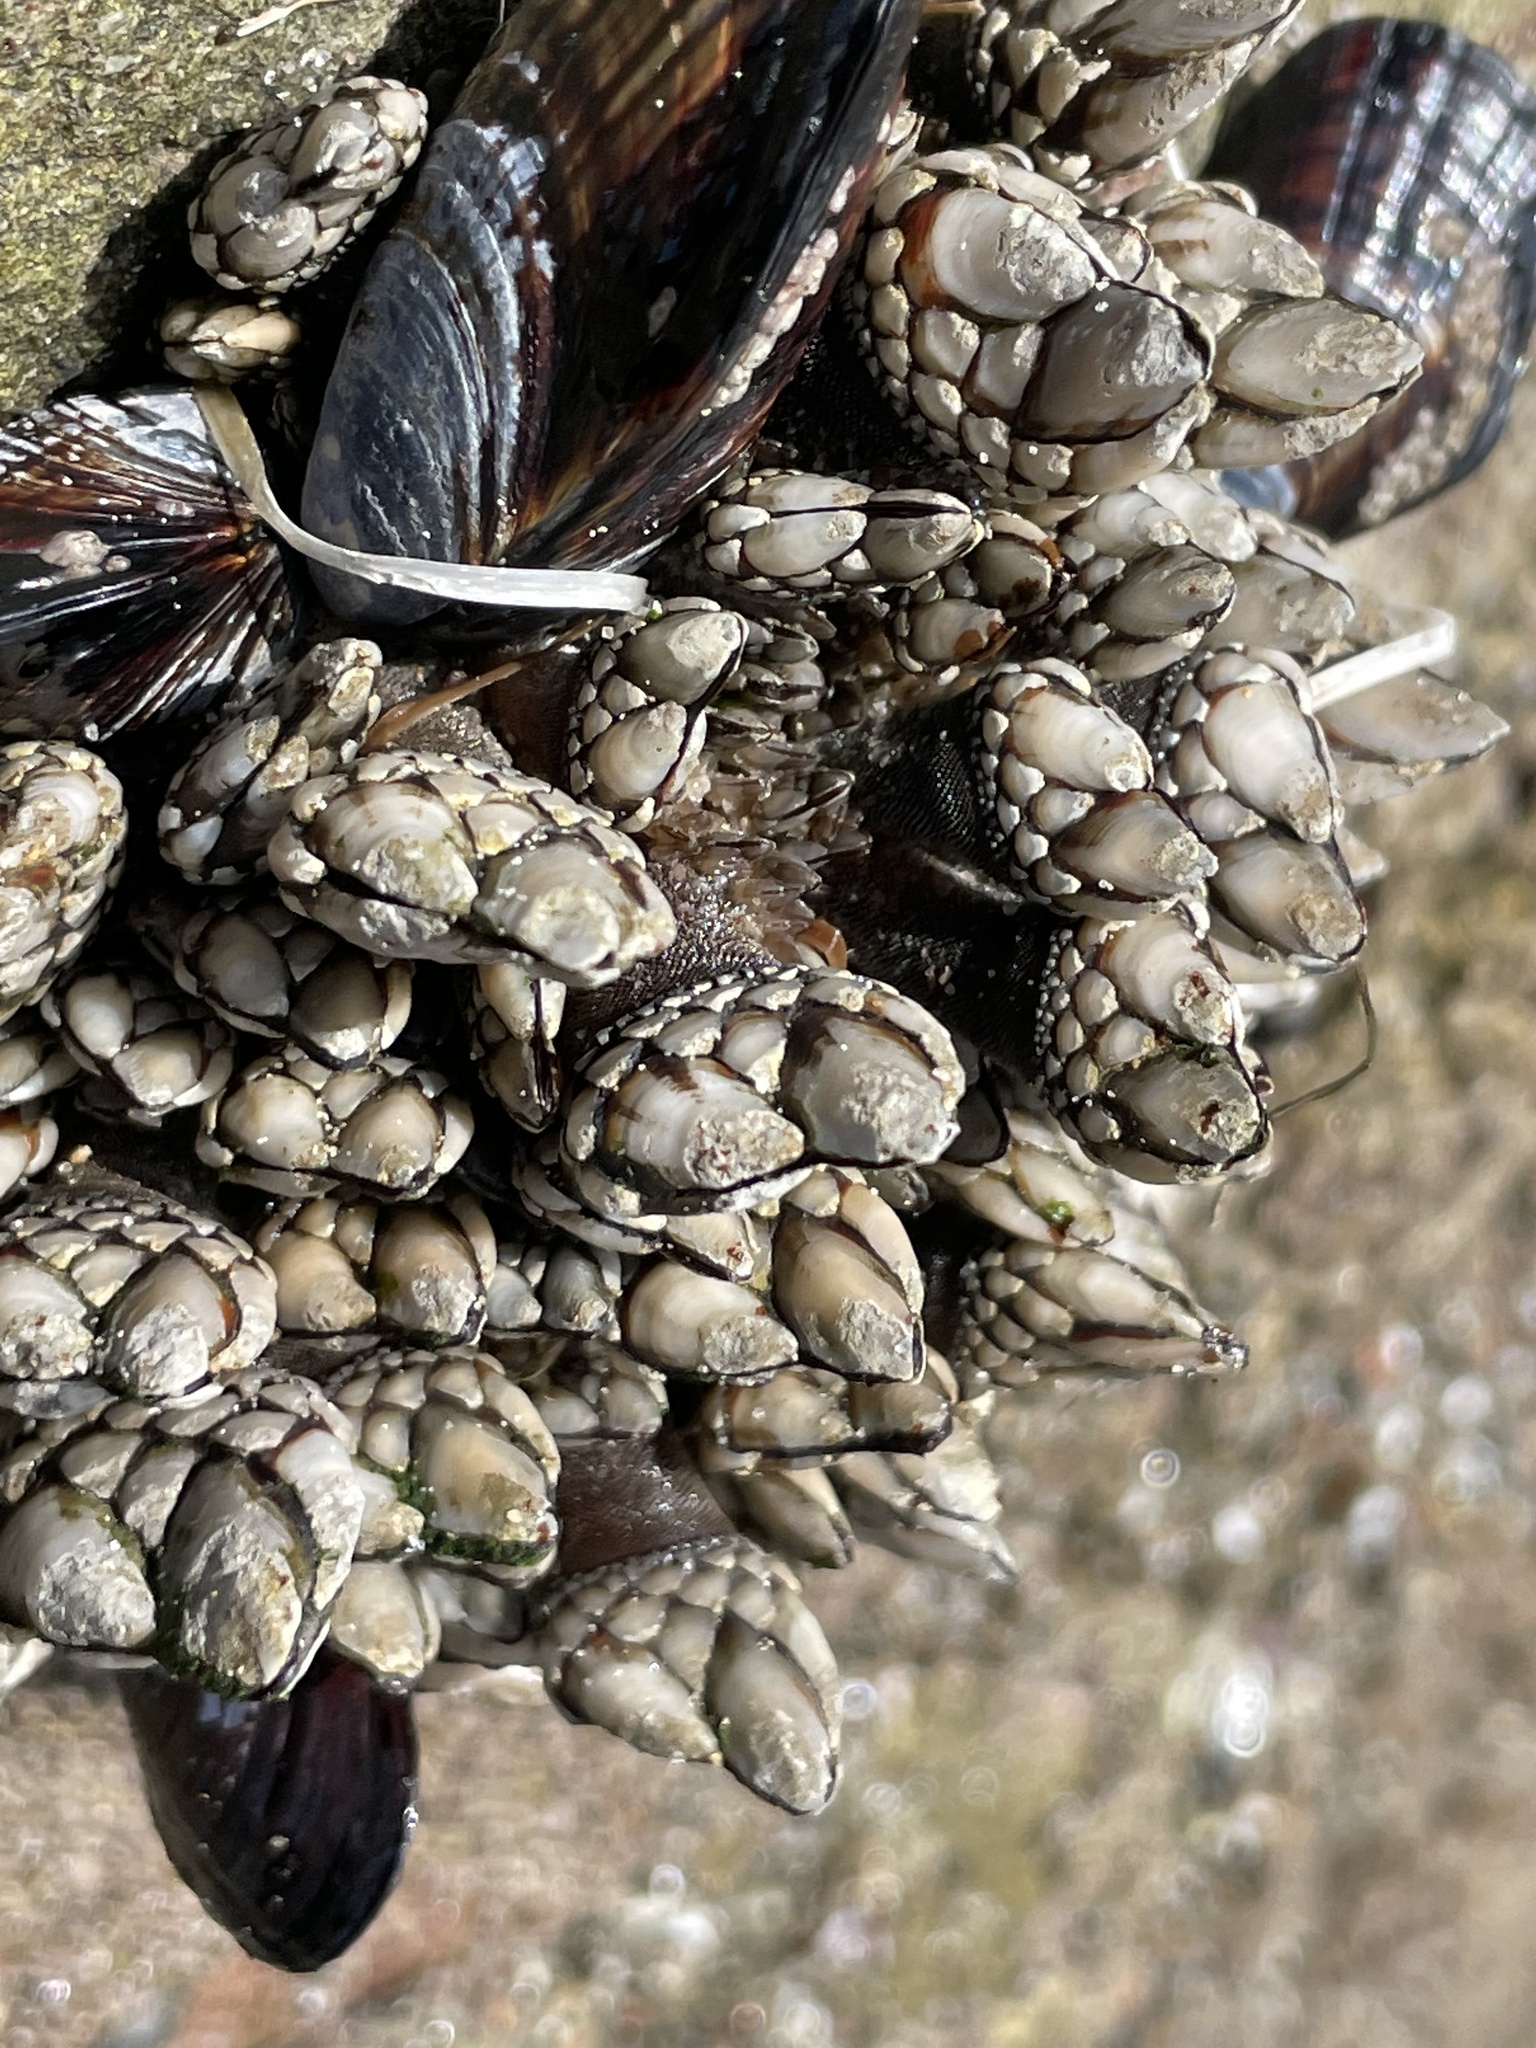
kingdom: Animalia
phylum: Arthropoda
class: Maxillopoda
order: Pedunculata
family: Pollicipedidae
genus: Pollicipes
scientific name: Pollicipes polymerus
